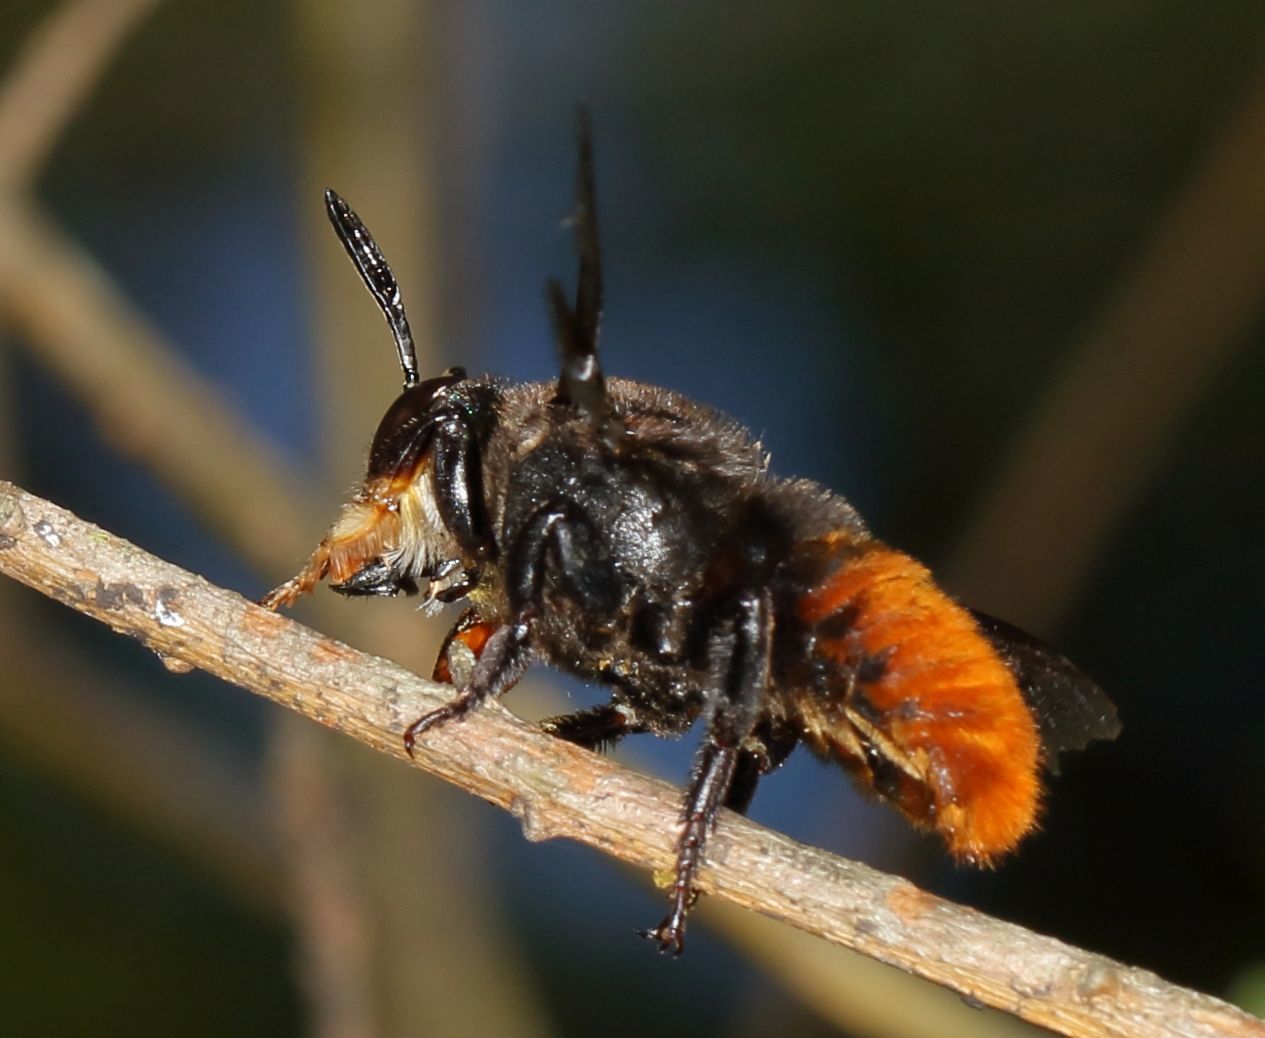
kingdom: Animalia
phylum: Arthropoda
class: Insecta
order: Hymenoptera
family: Megachilidae
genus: Gronoceras
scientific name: Gronoceras cinctum
